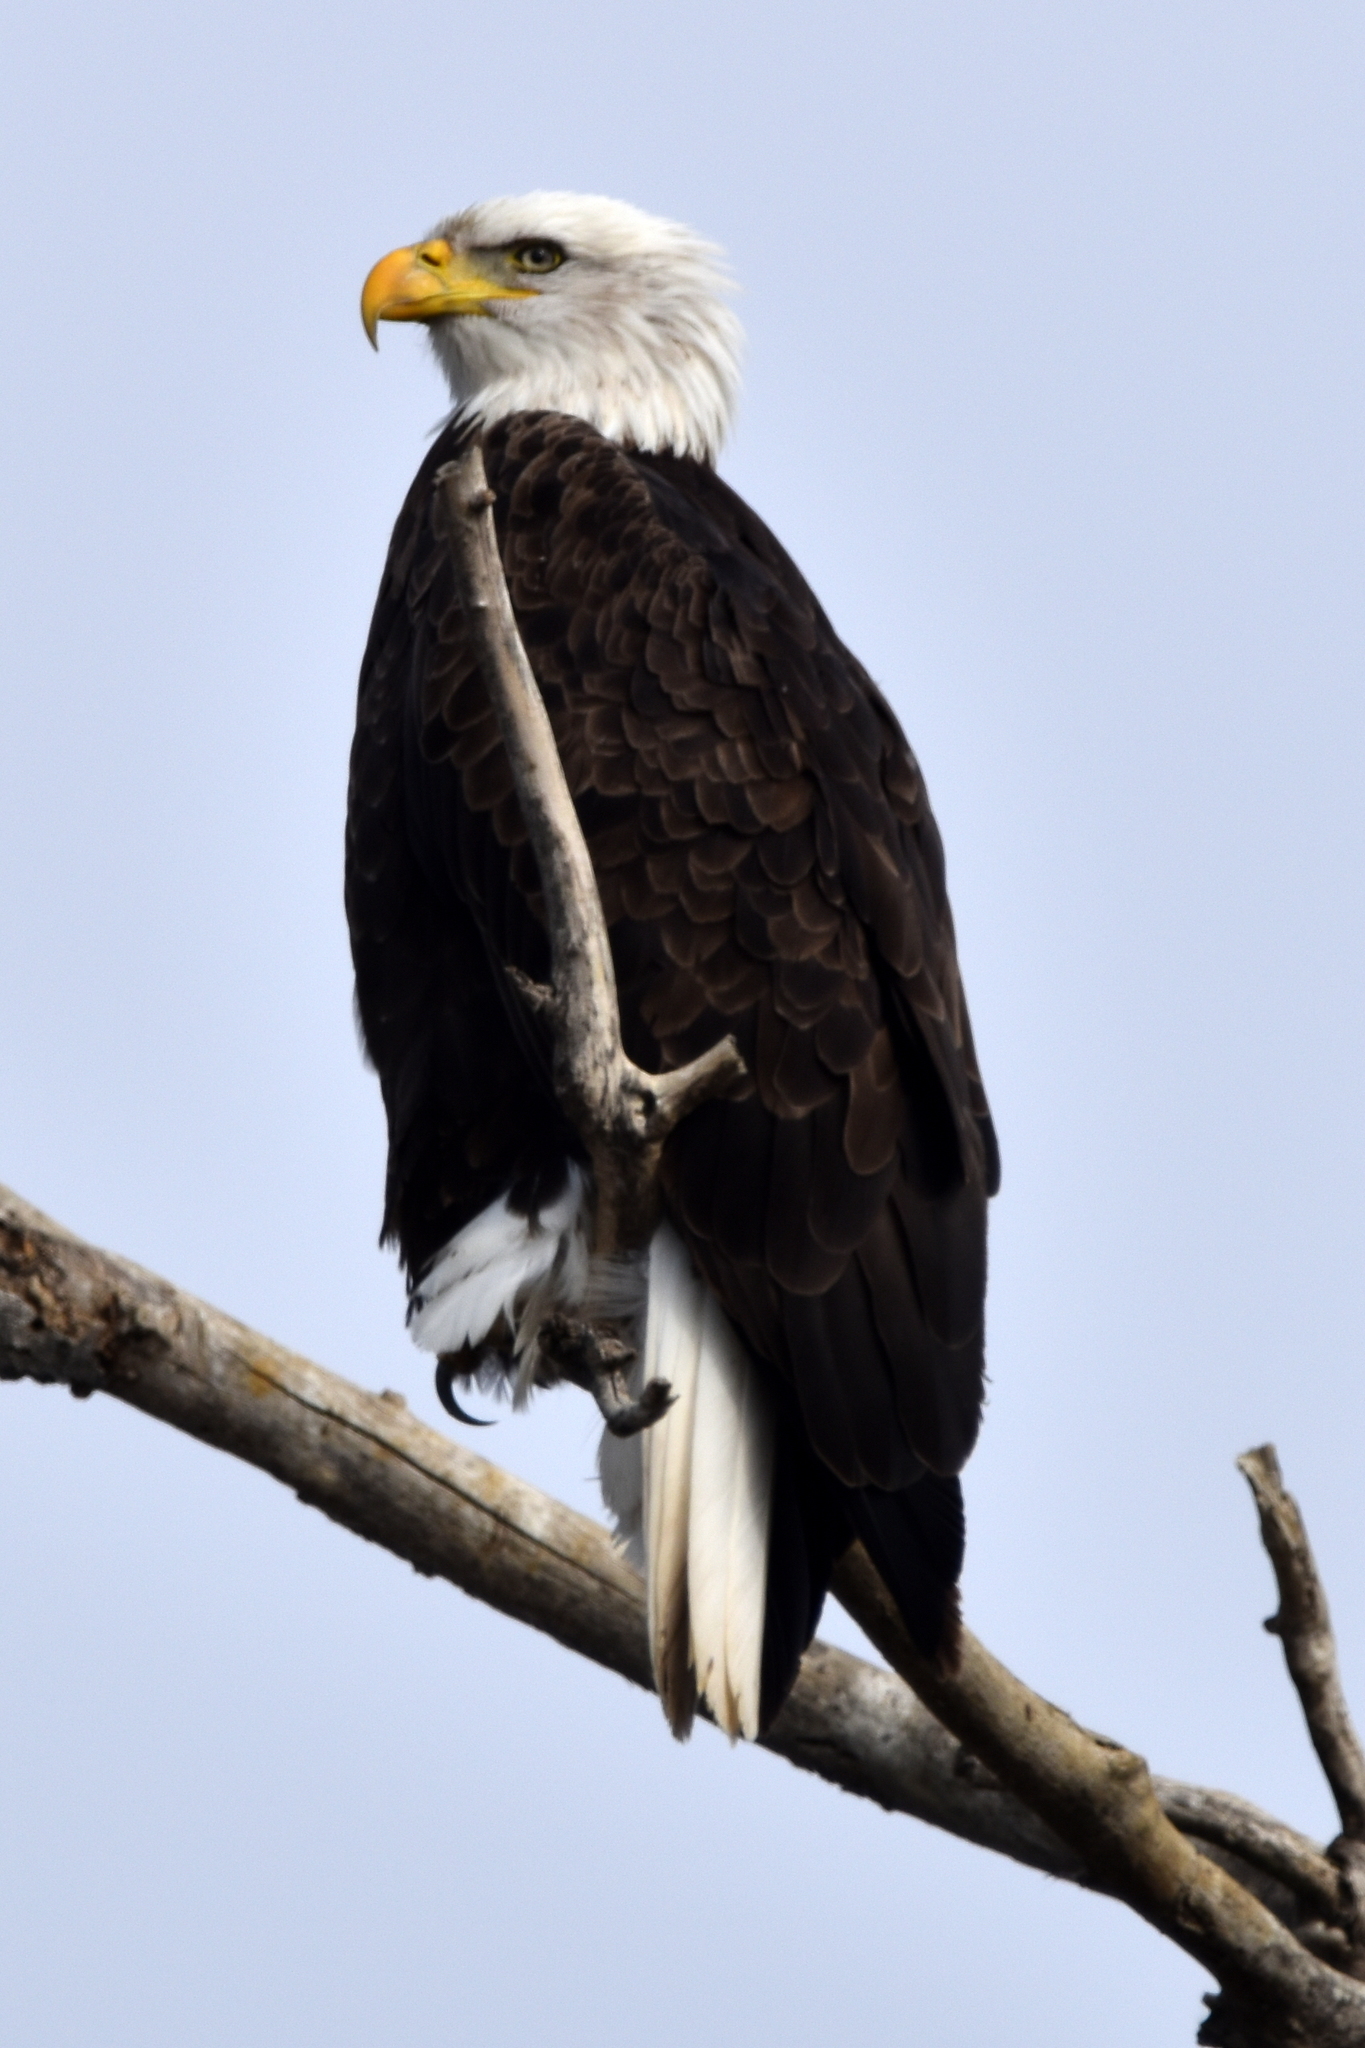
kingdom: Animalia
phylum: Chordata
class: Aves
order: Accipitriformes
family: Accipitridae
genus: Haliaeetus
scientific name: Haliaeetus leucocephalus
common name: Bald eagle
